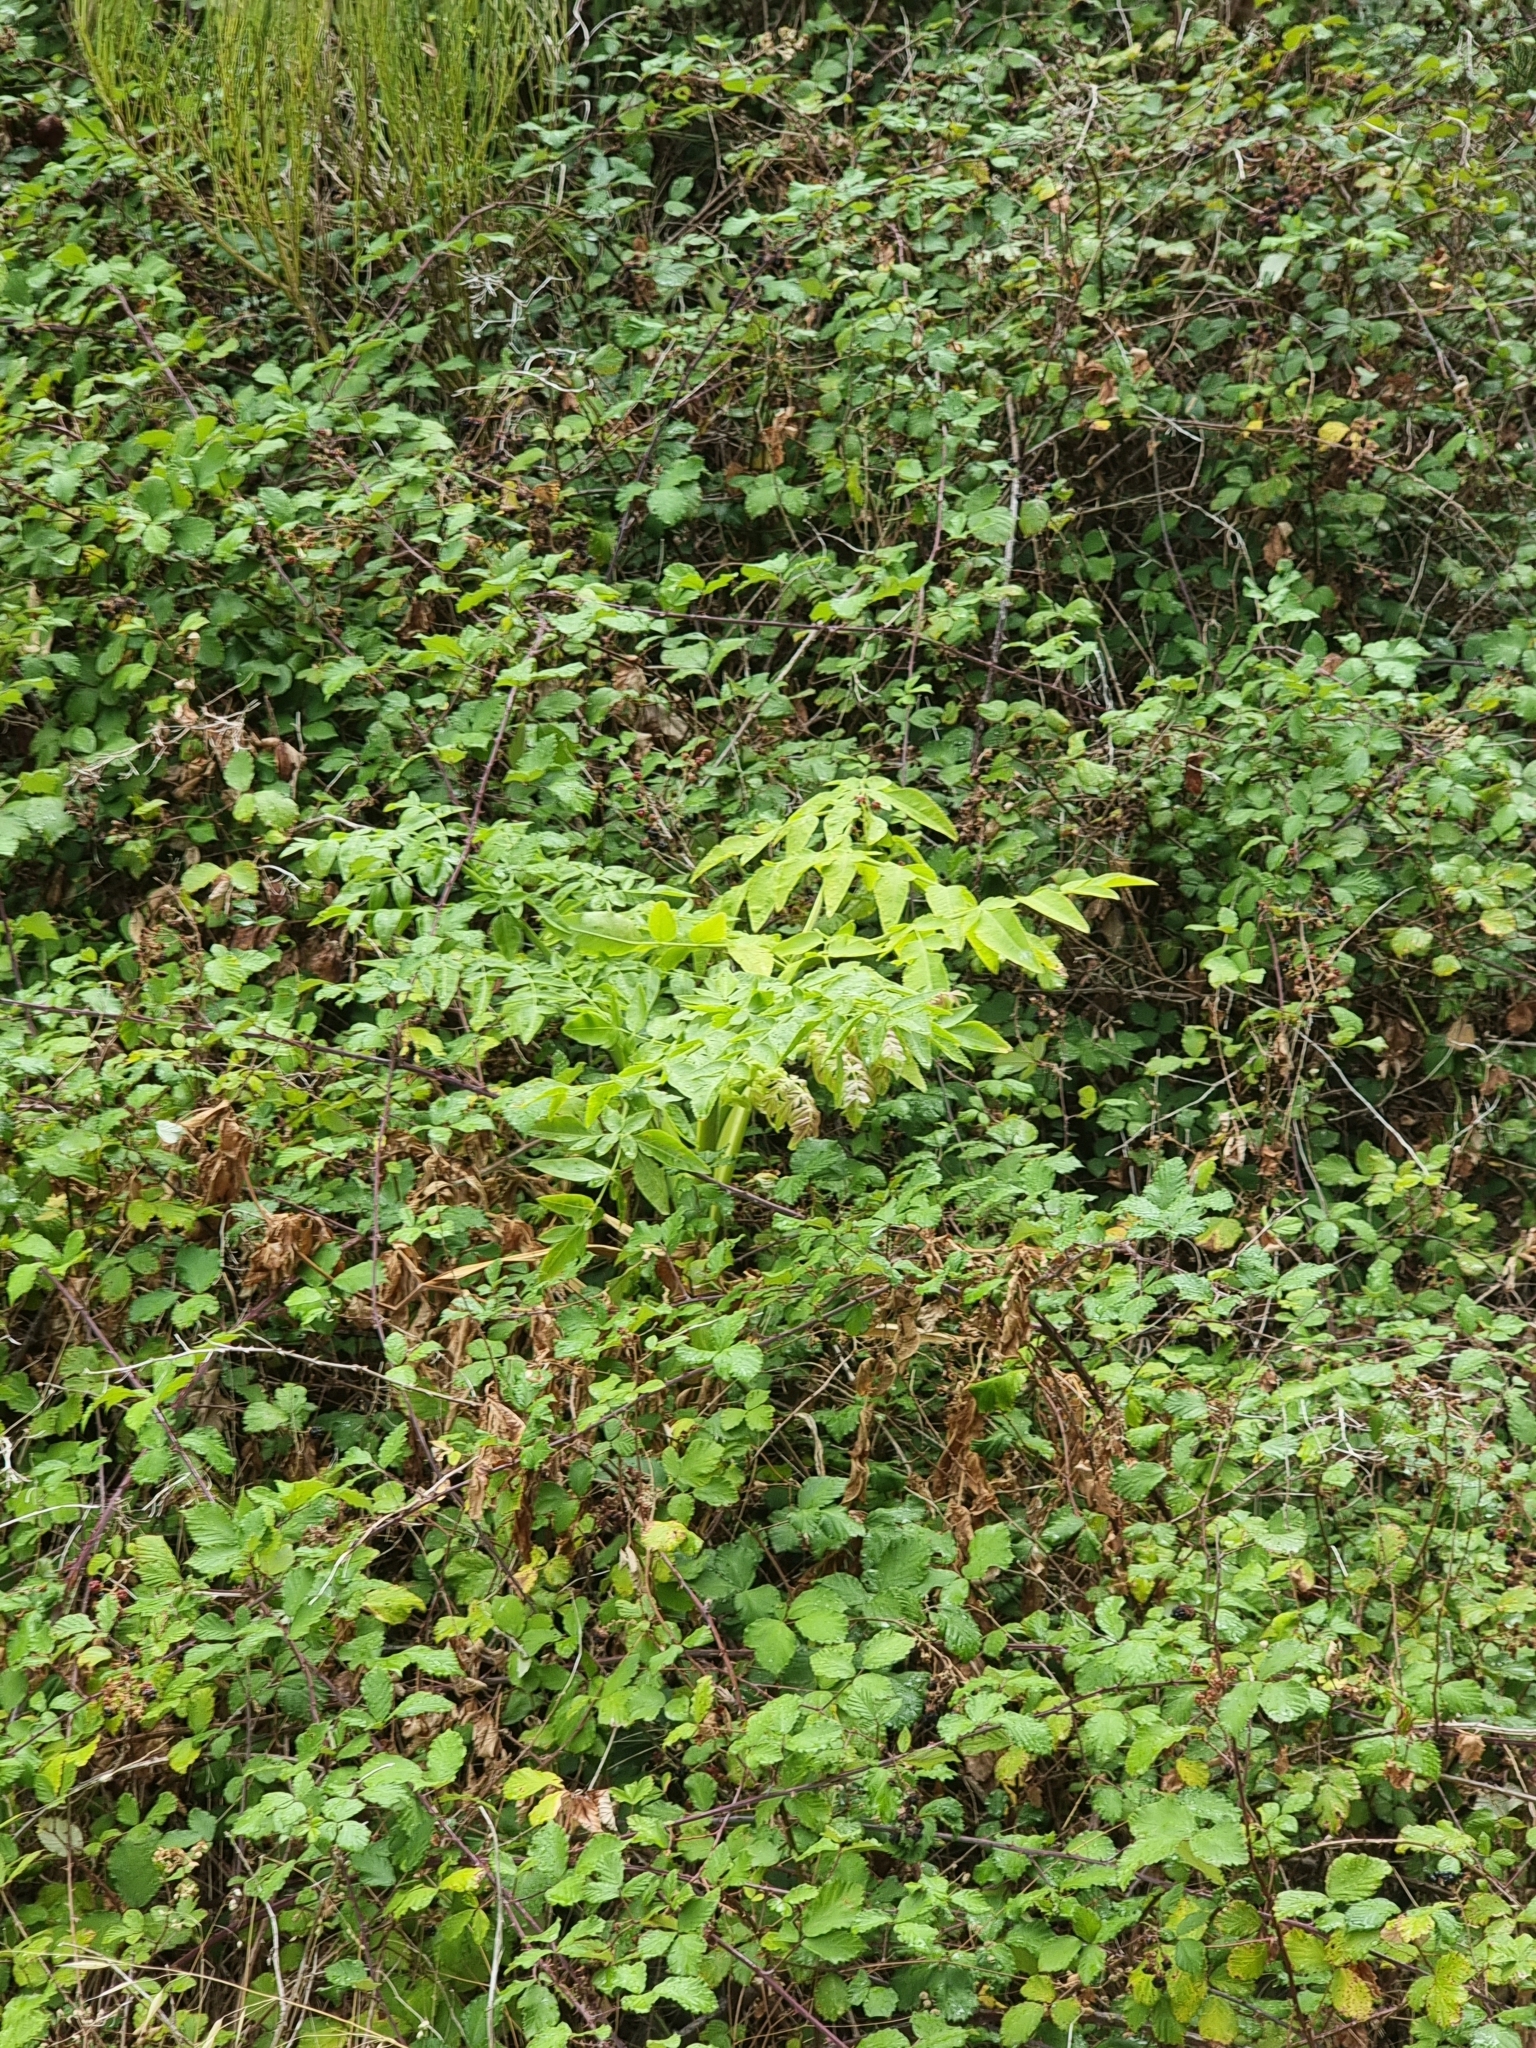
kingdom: Plantae
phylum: Tracheophyta
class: Magnoliopsida
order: Apiales
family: Apiaceae
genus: Daucus
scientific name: Daucus decipiens
